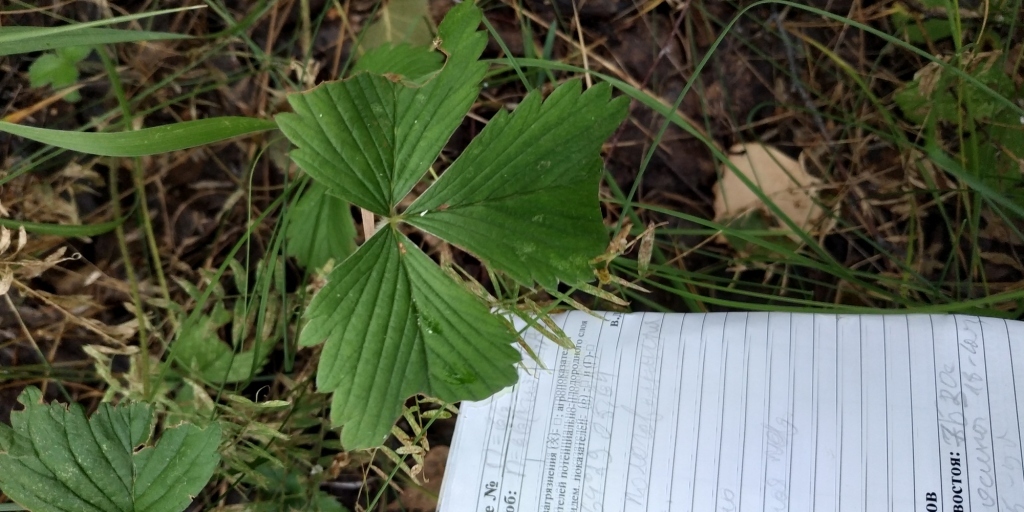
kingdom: Plantae
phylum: Tracheophyta
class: Magnoliopsida
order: Rosales
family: Rosaceae
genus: Fragaria
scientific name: Fragaria viridis
